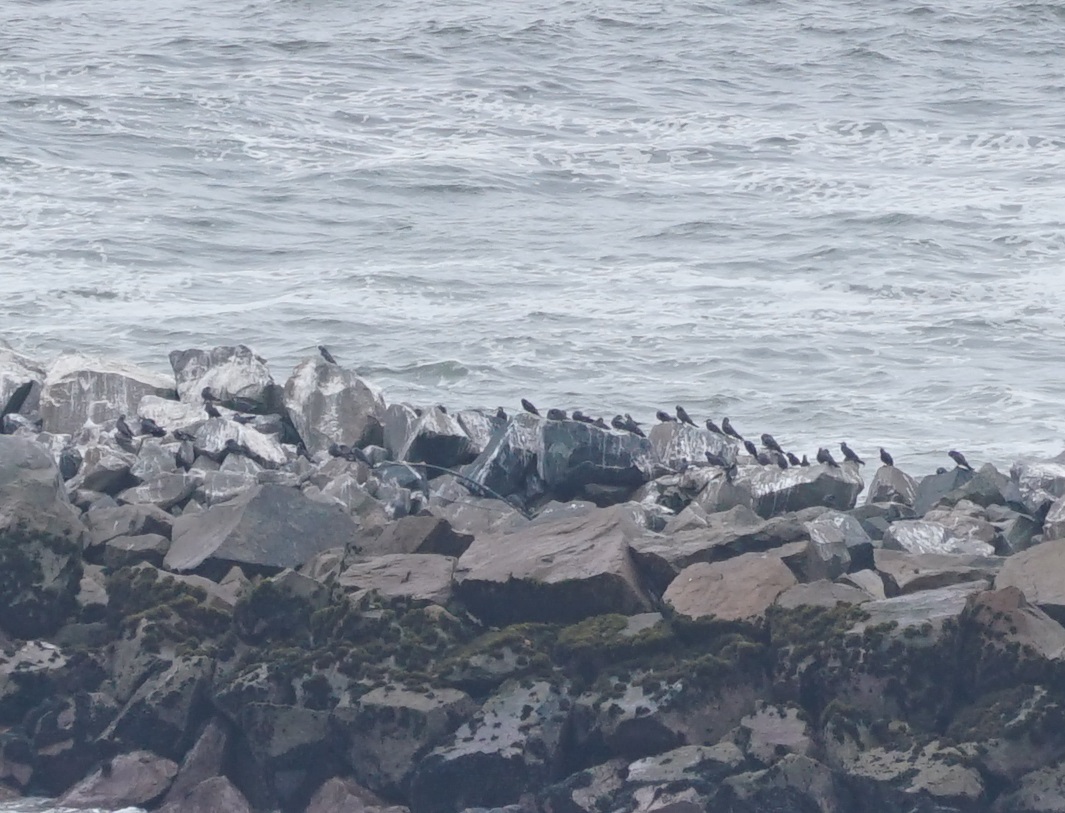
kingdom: Animalia
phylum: Chordata
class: Aves
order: Charadriiformes
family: Laridae
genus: Larosterna
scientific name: Larosterna inca
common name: Inca tern
